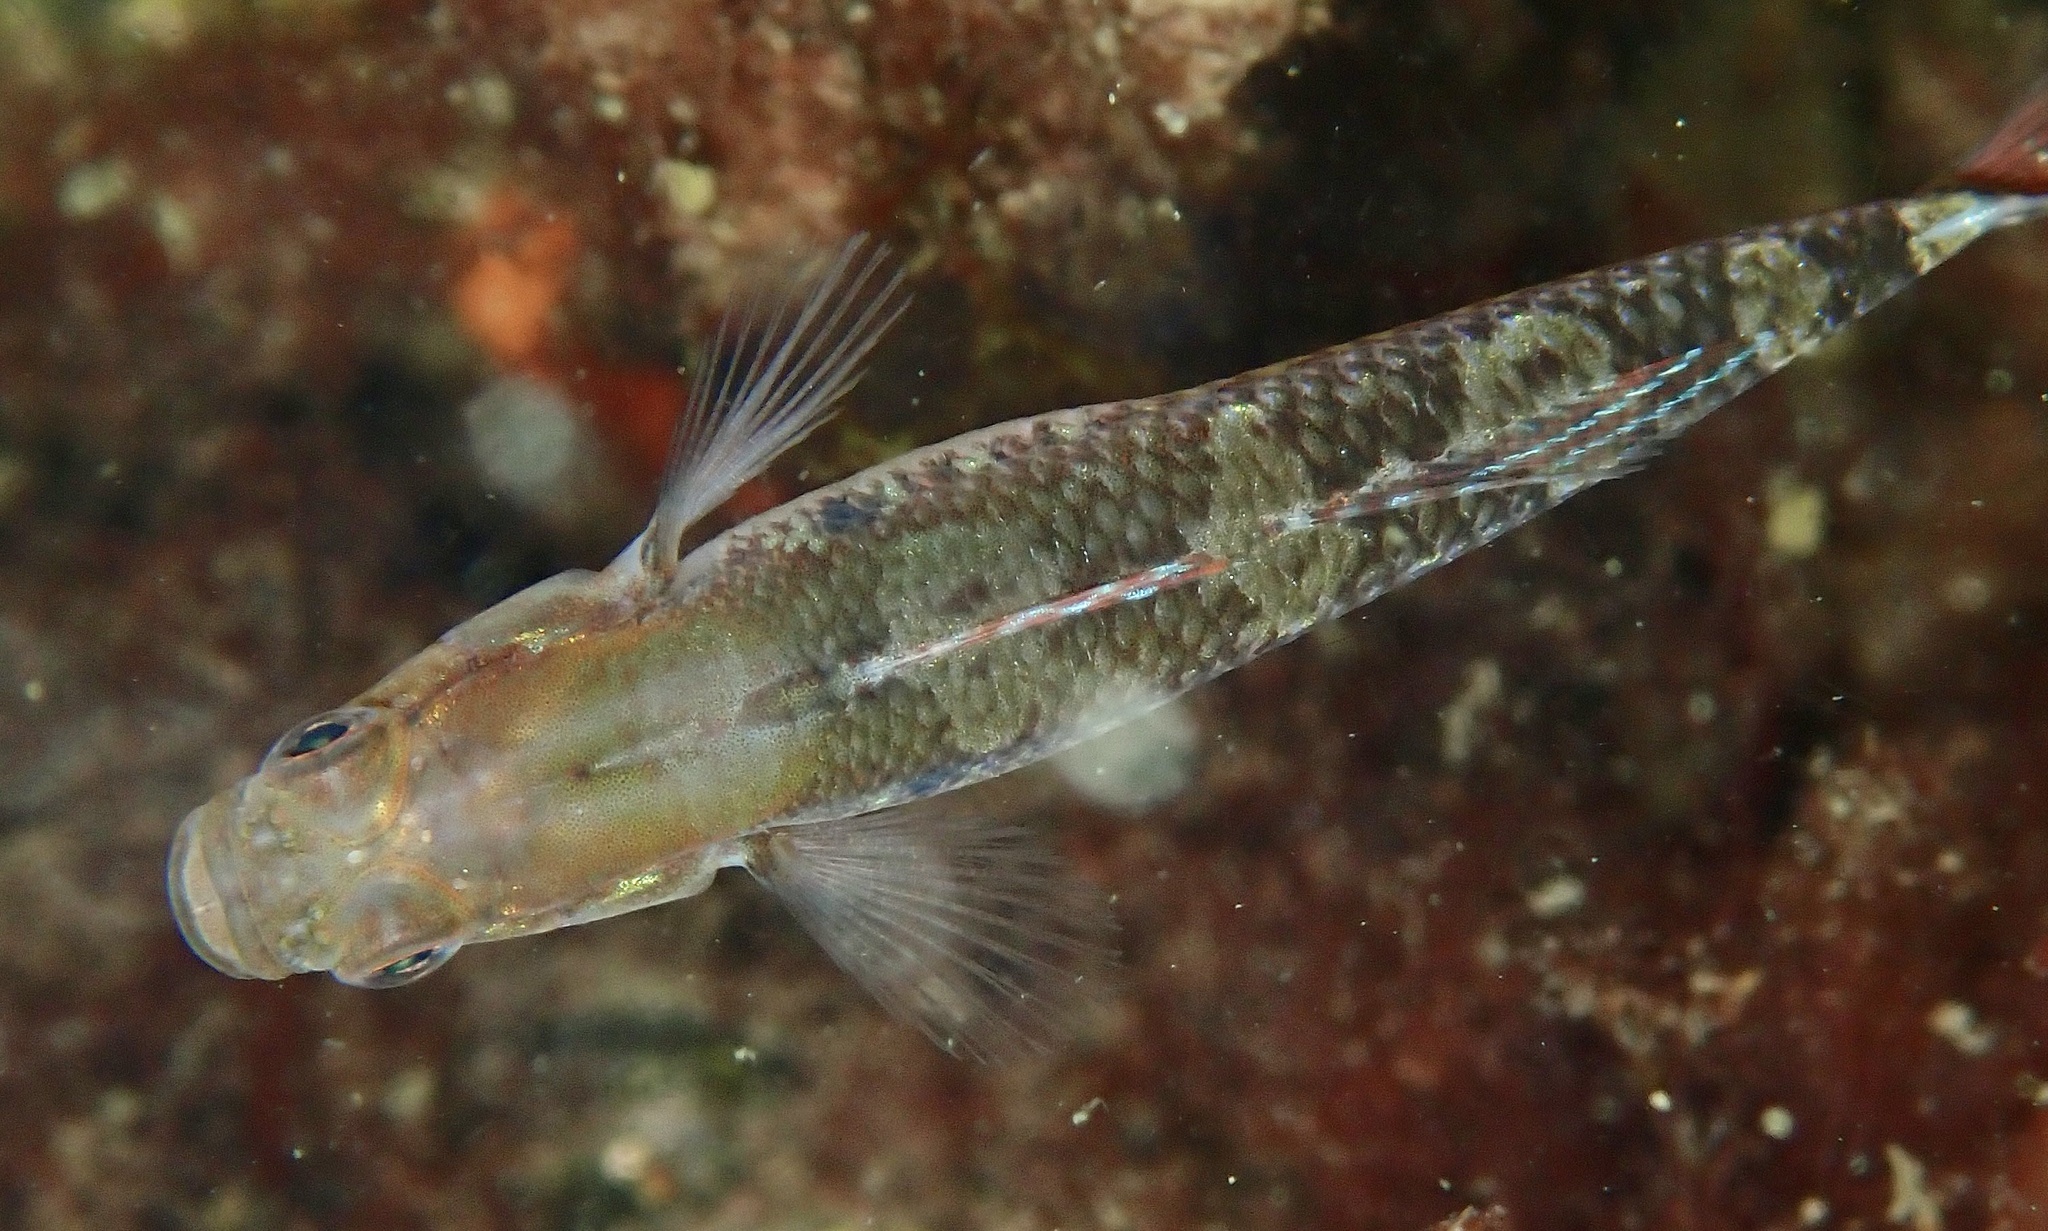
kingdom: Animalia
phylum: Chordata
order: Perciformes
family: Gobiidae
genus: Gobiusculus
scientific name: Gobiusculus flavescens
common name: Two-spotted goby
